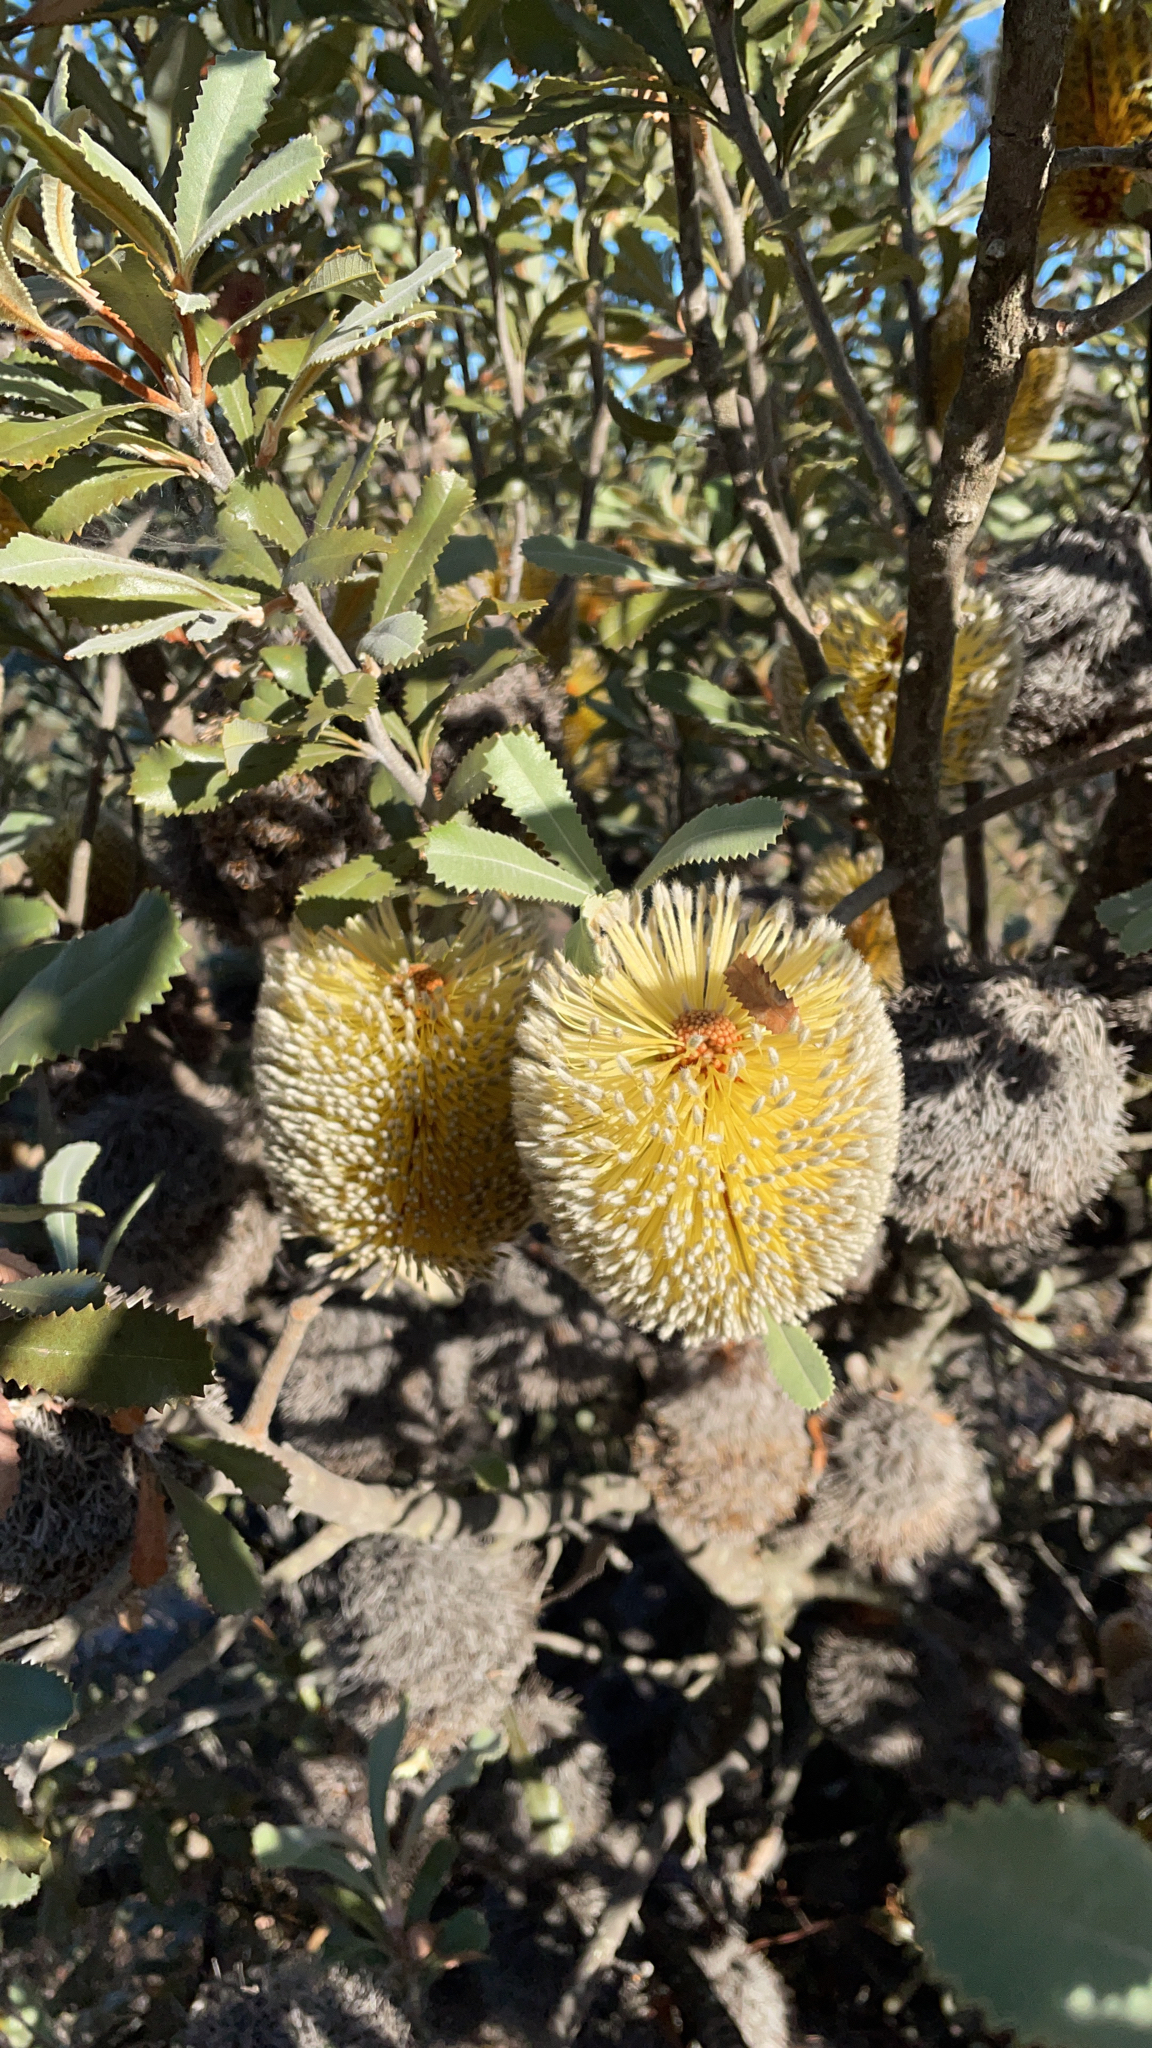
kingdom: Plantae
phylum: Tracheophyta
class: Magnoliopsida
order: Proteales
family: Proteaceae
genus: Banksia
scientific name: Banksia ornata
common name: Desert banksia
